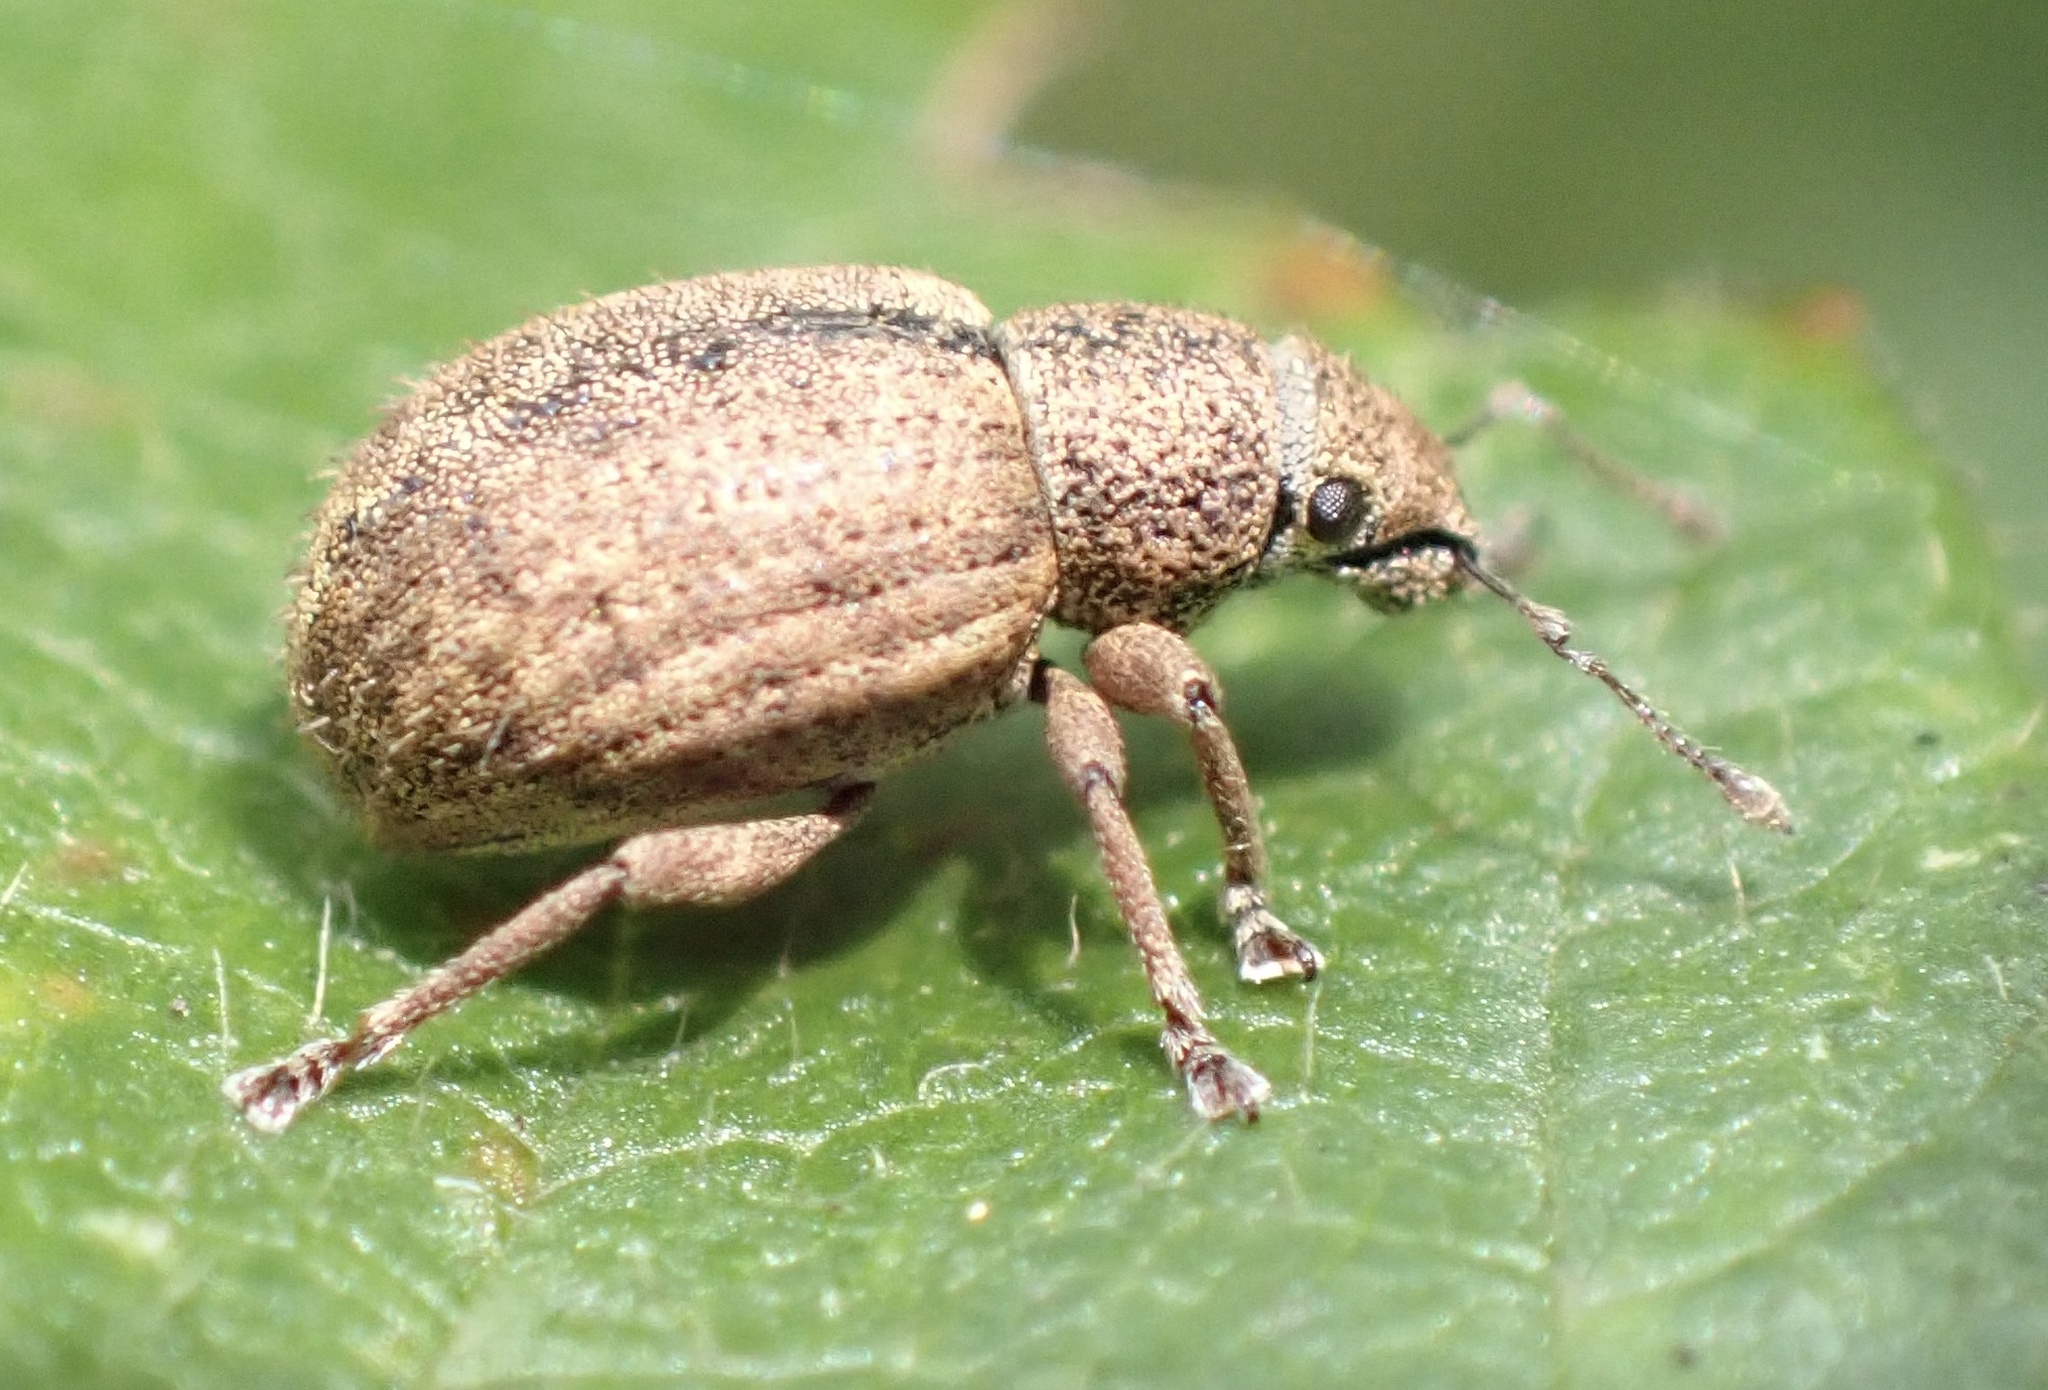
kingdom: Animalia
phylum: Arthropoda
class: Insecta
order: Coleoptera
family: Curculionidae
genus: Strophosoma
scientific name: Strophosoma melanogrammum
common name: Weevil
